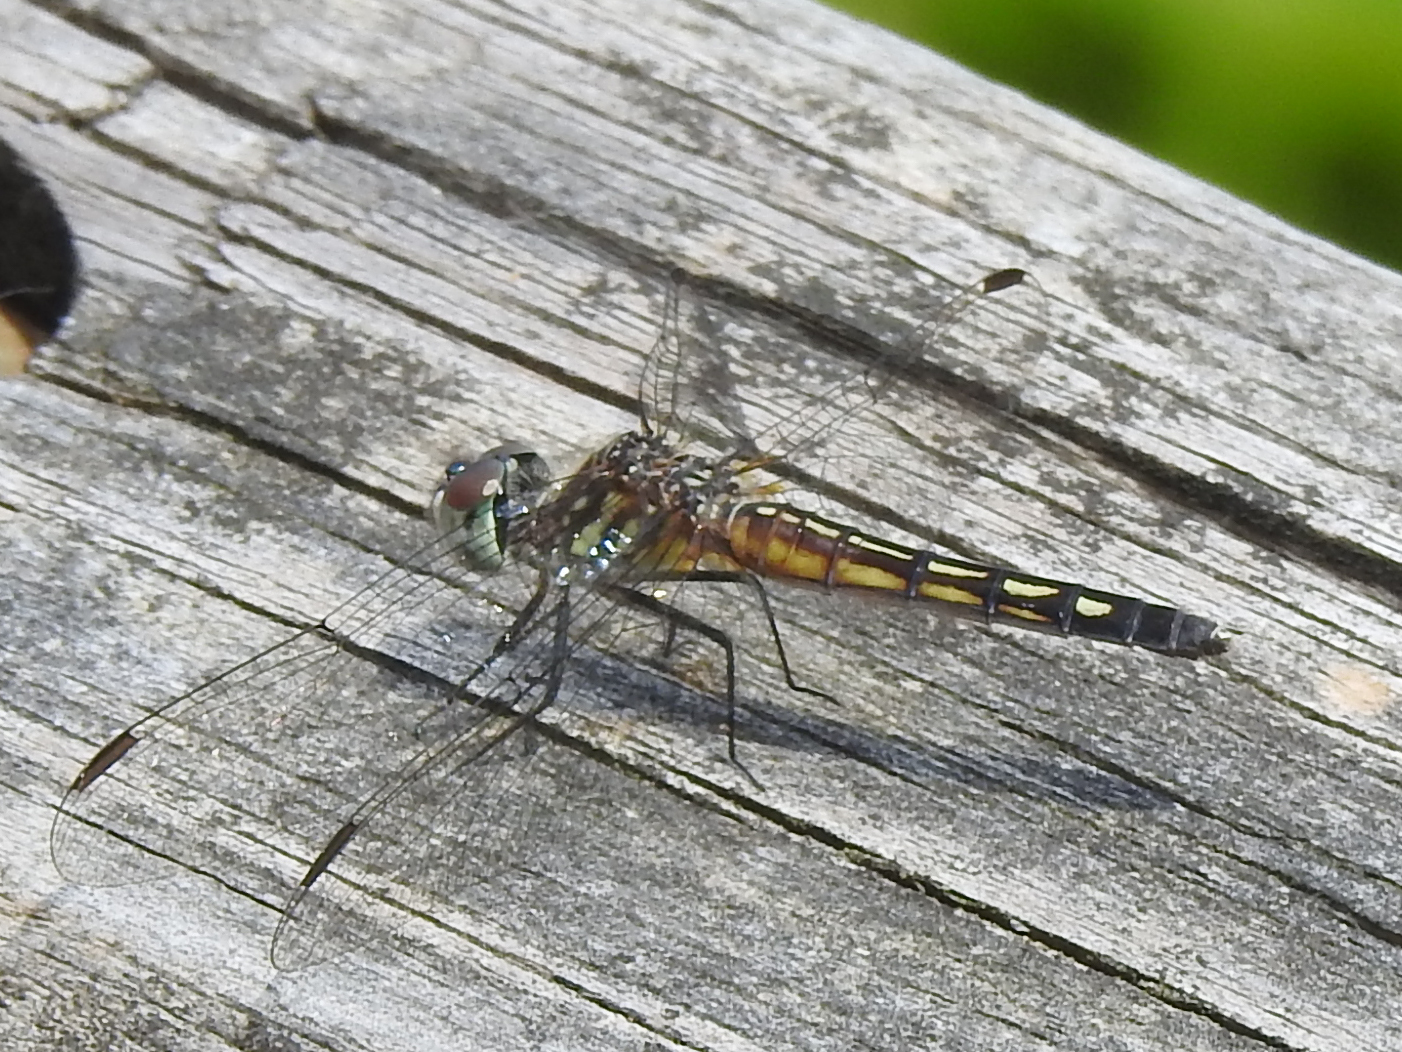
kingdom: Animalia
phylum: Arthropoda
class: Insecta
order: Odonata
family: Libellulidae
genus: Pachydiplax
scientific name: Pachydiplax longipennis
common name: Blue dasher
